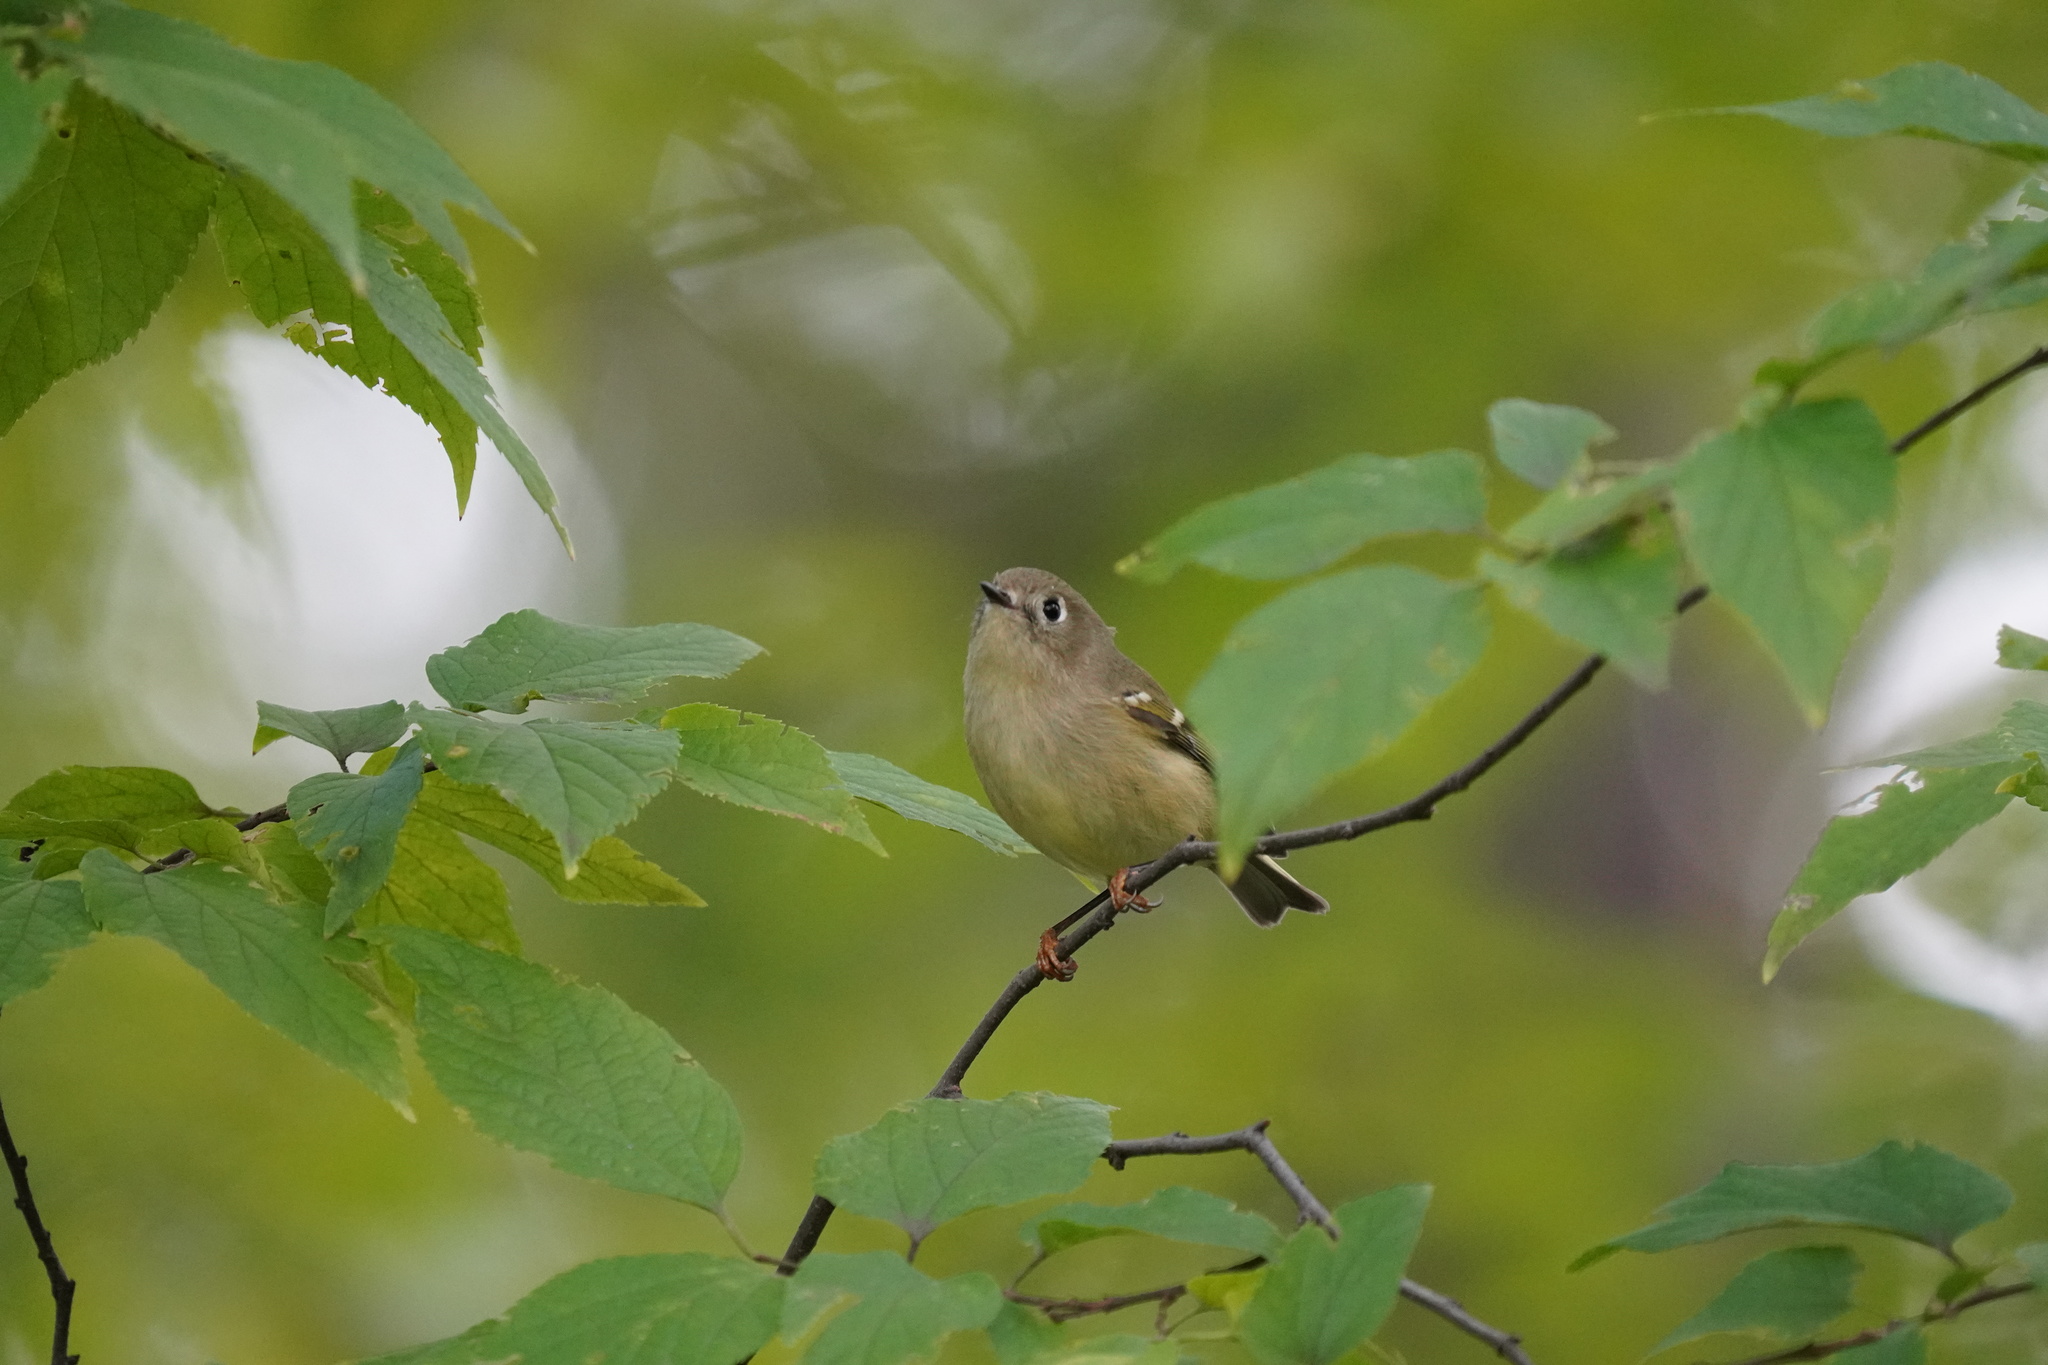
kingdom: Animalia
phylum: Chordata
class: Aves
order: Passeriformes
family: Regulidae
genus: Regulus
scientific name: Regulus calendula
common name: Ruby-crowned kinglet
